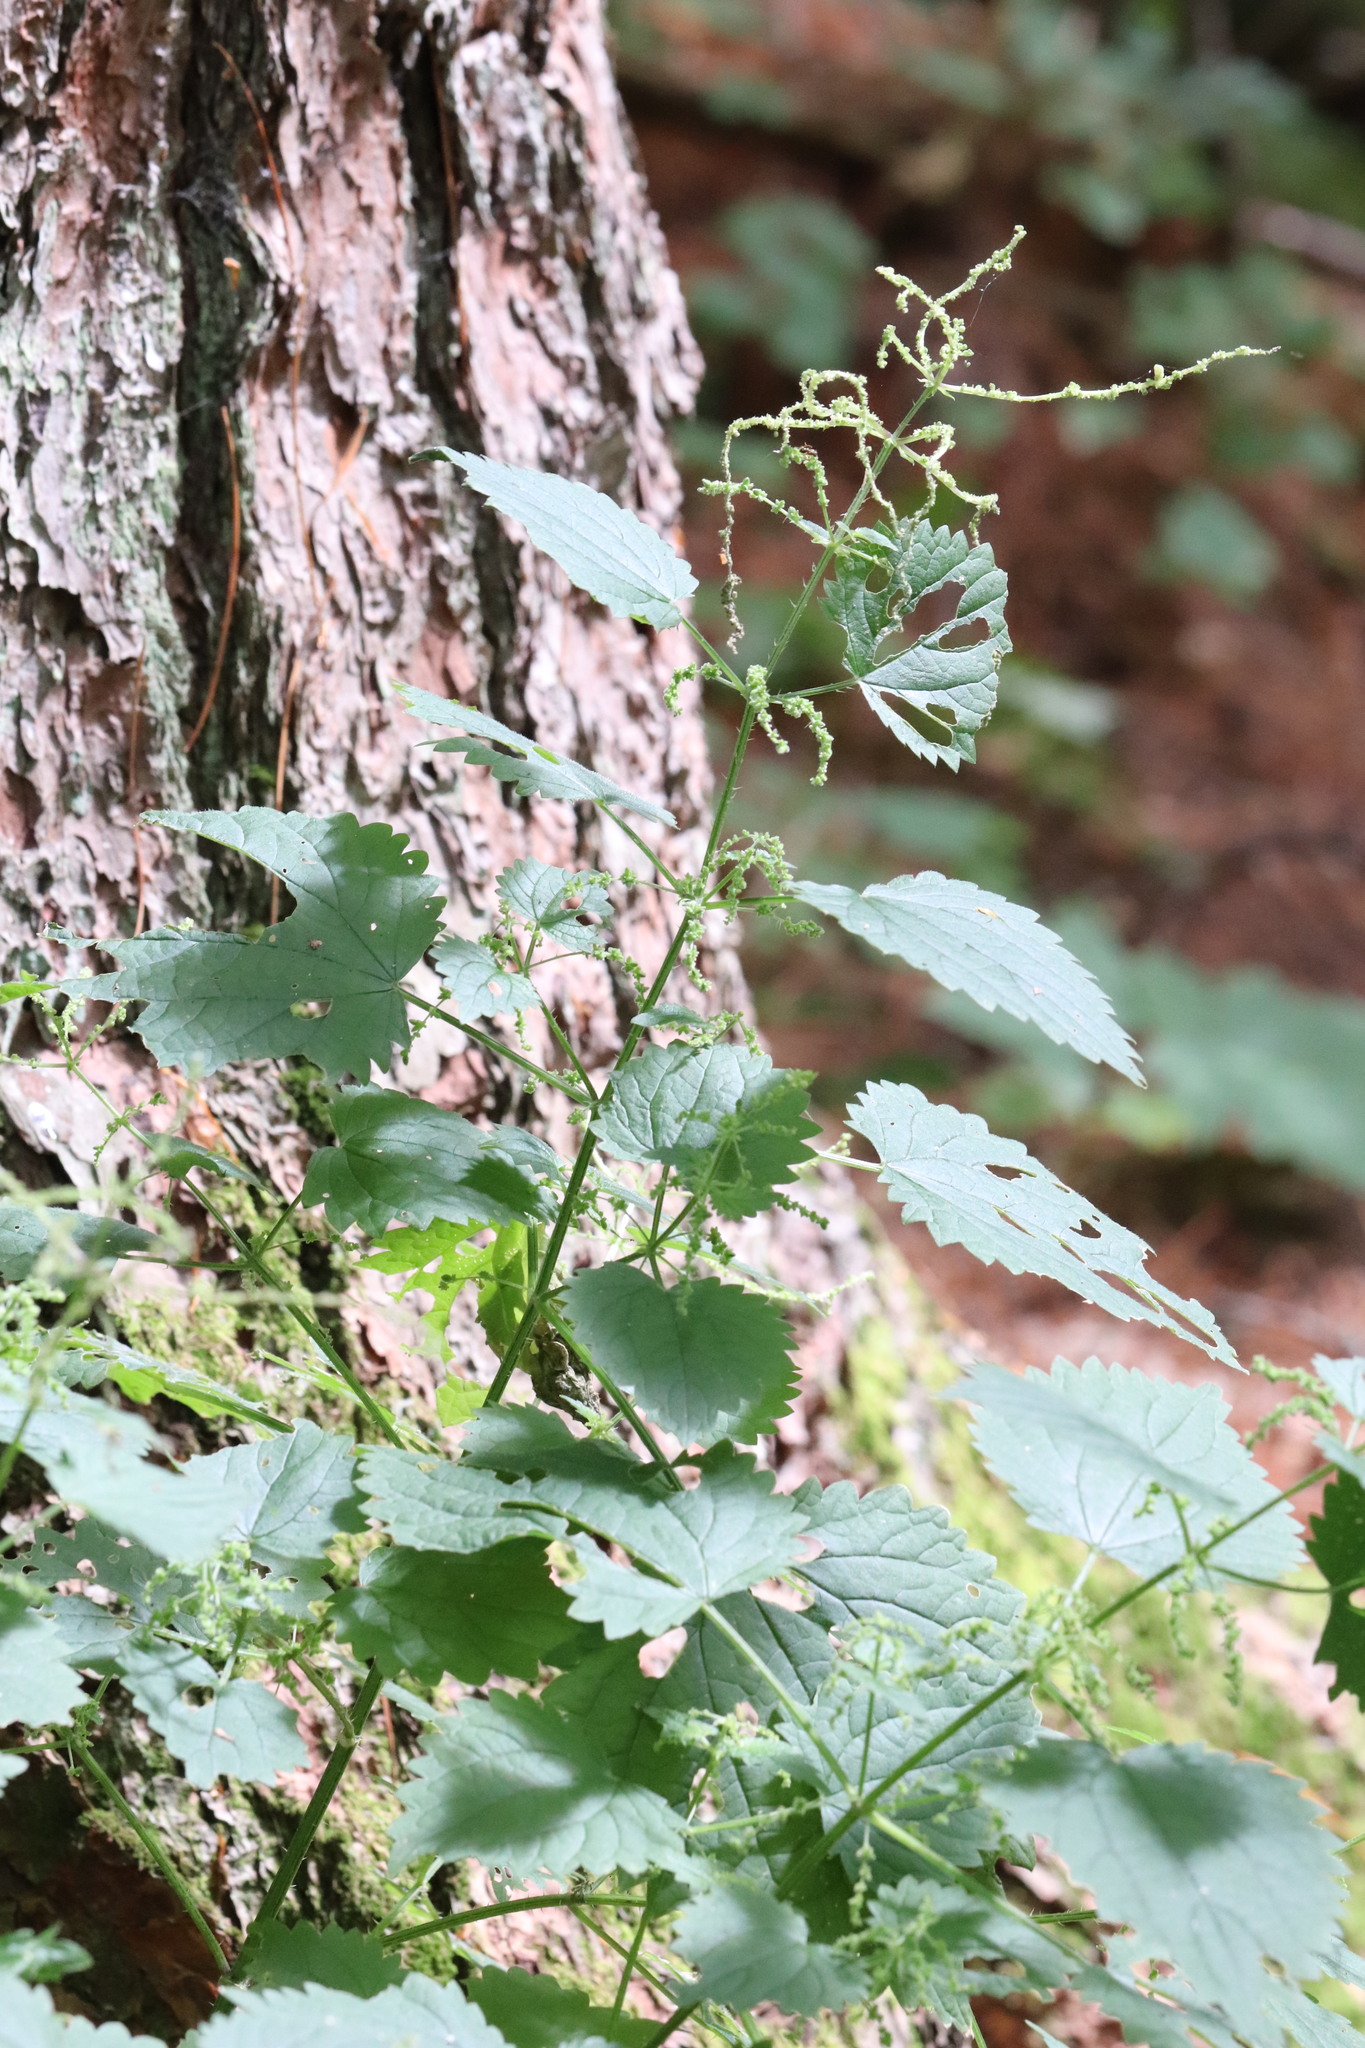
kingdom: Plantae
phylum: Tracheophyta
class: Magnoliopsida
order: Rosales
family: Urticaceae
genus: Urtica
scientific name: Urtica thunbergiana
